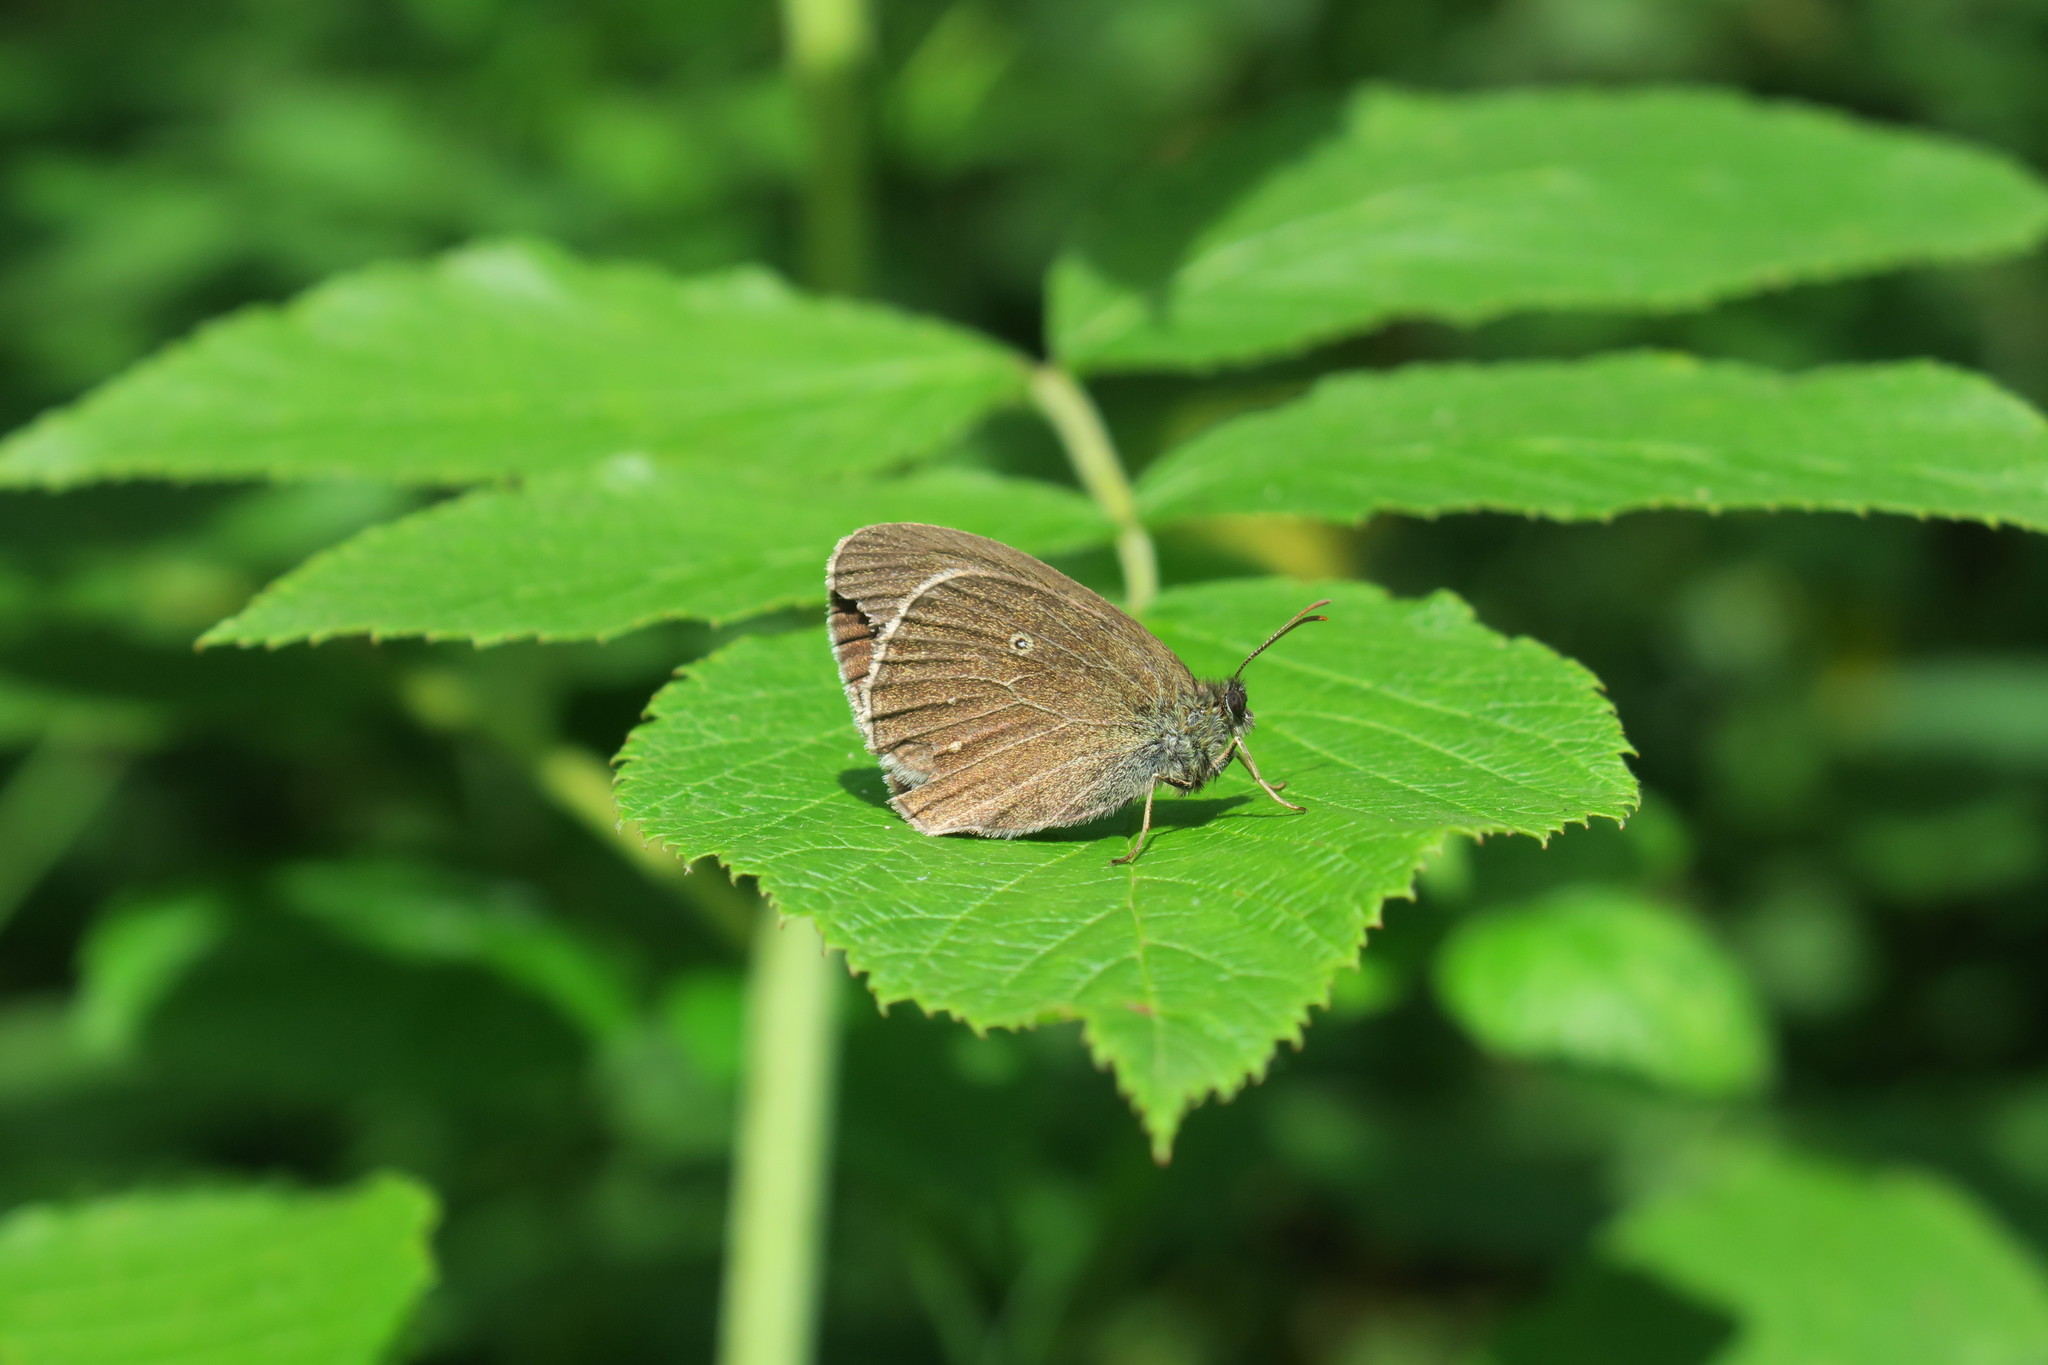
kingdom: Animalia
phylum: Arthropoda
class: Insecta
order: Lepidoptera
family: Nymphalidae
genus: Aphantopus
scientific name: Aphantopus hyperantus
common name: Ringlet
